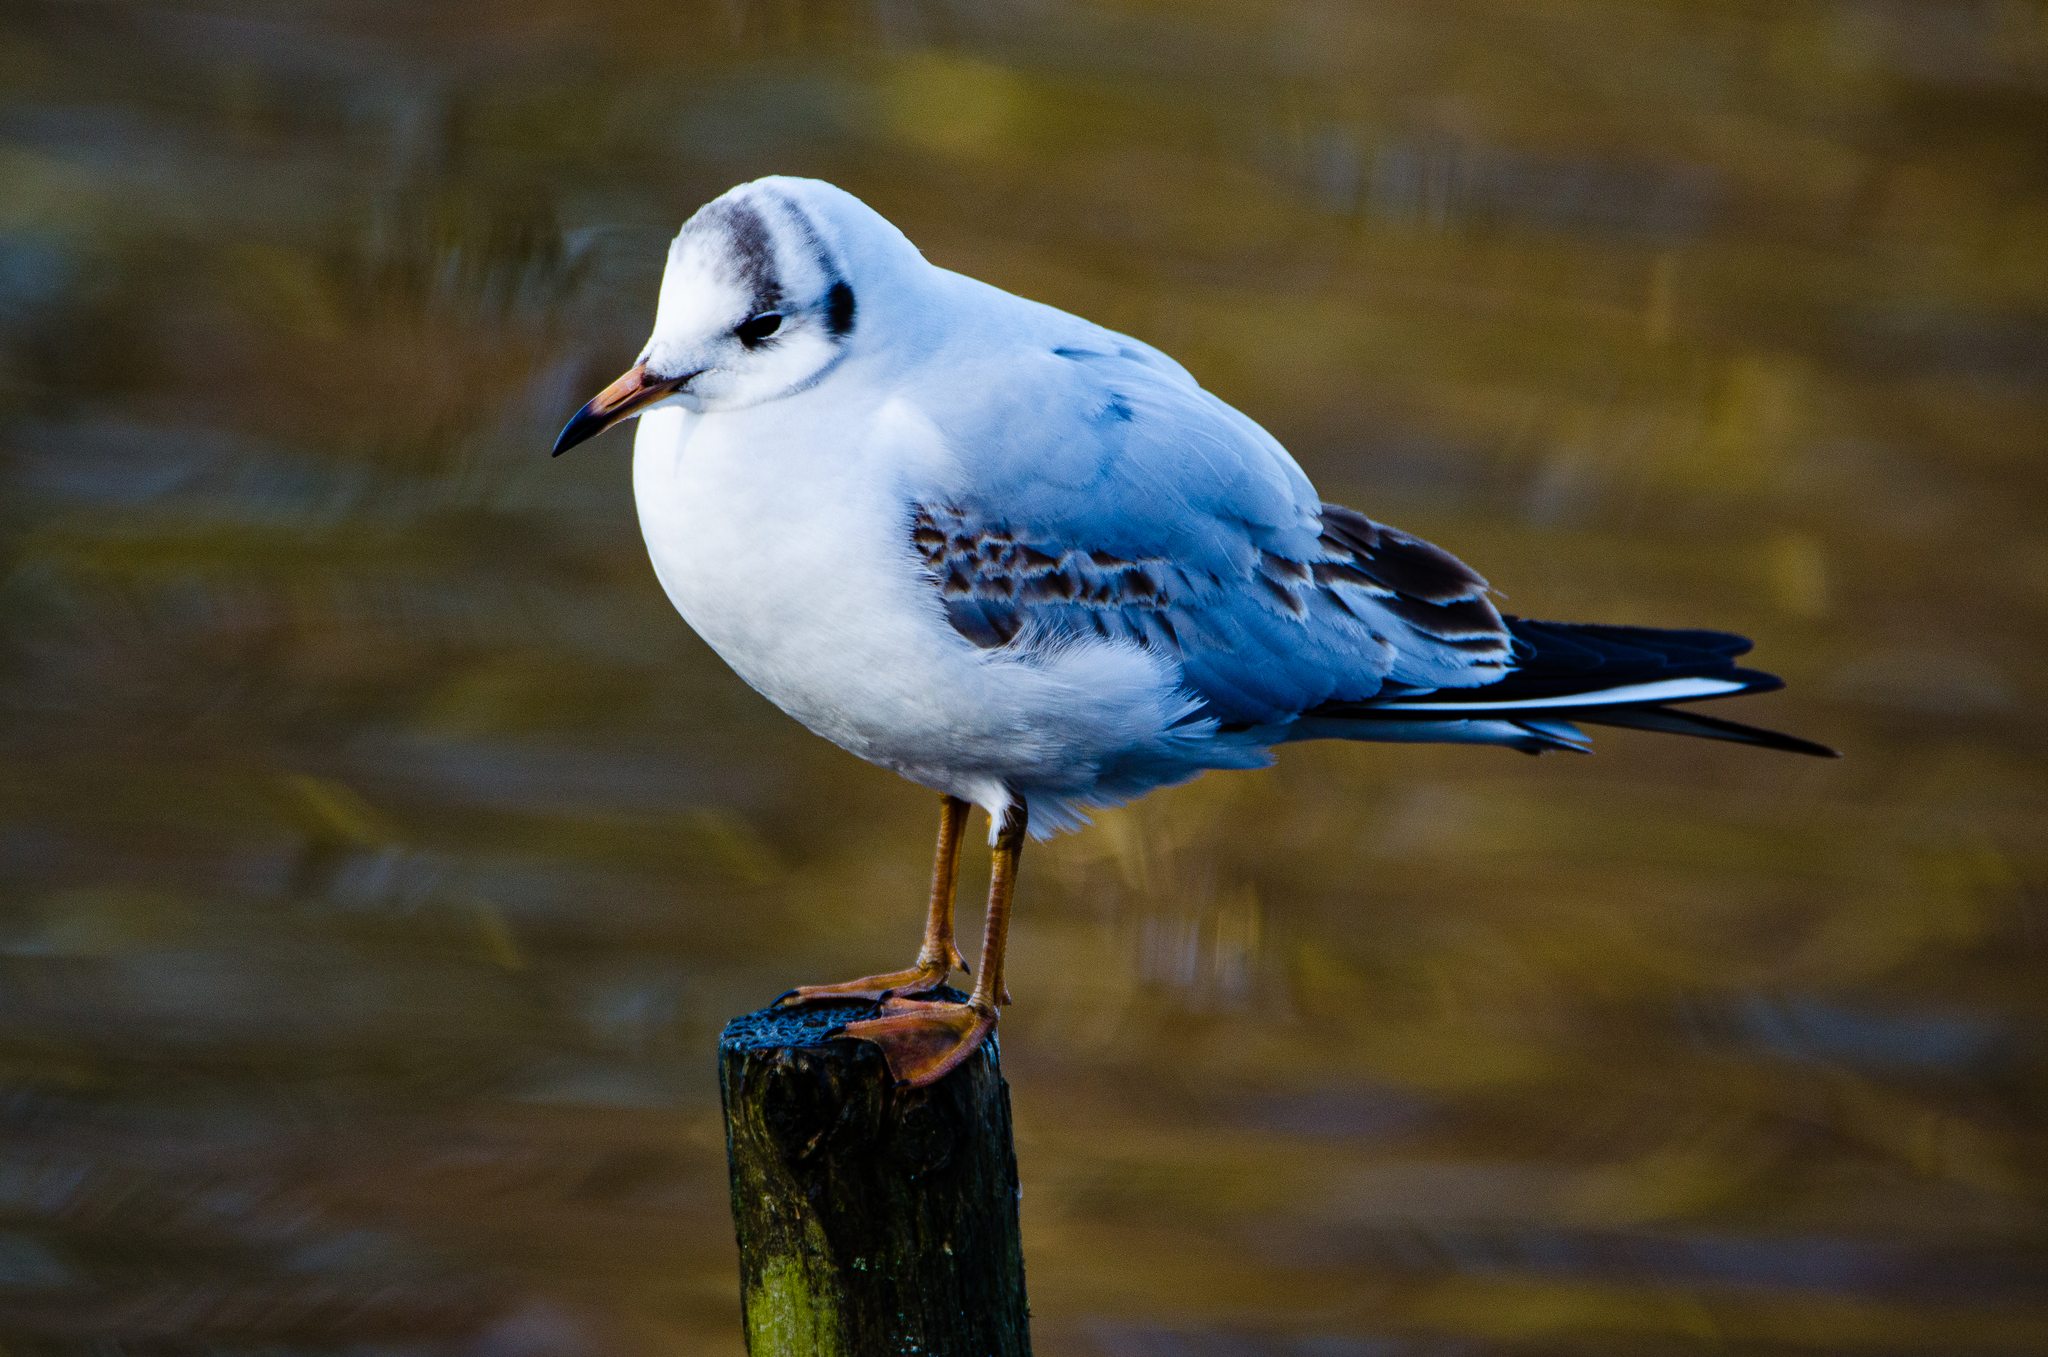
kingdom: Animalia
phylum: Chordata
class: Aves
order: Charadriiformes
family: Laridae
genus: Chroicocephalus
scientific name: Chroicocephalus ridibundus
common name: Black-headed gull
